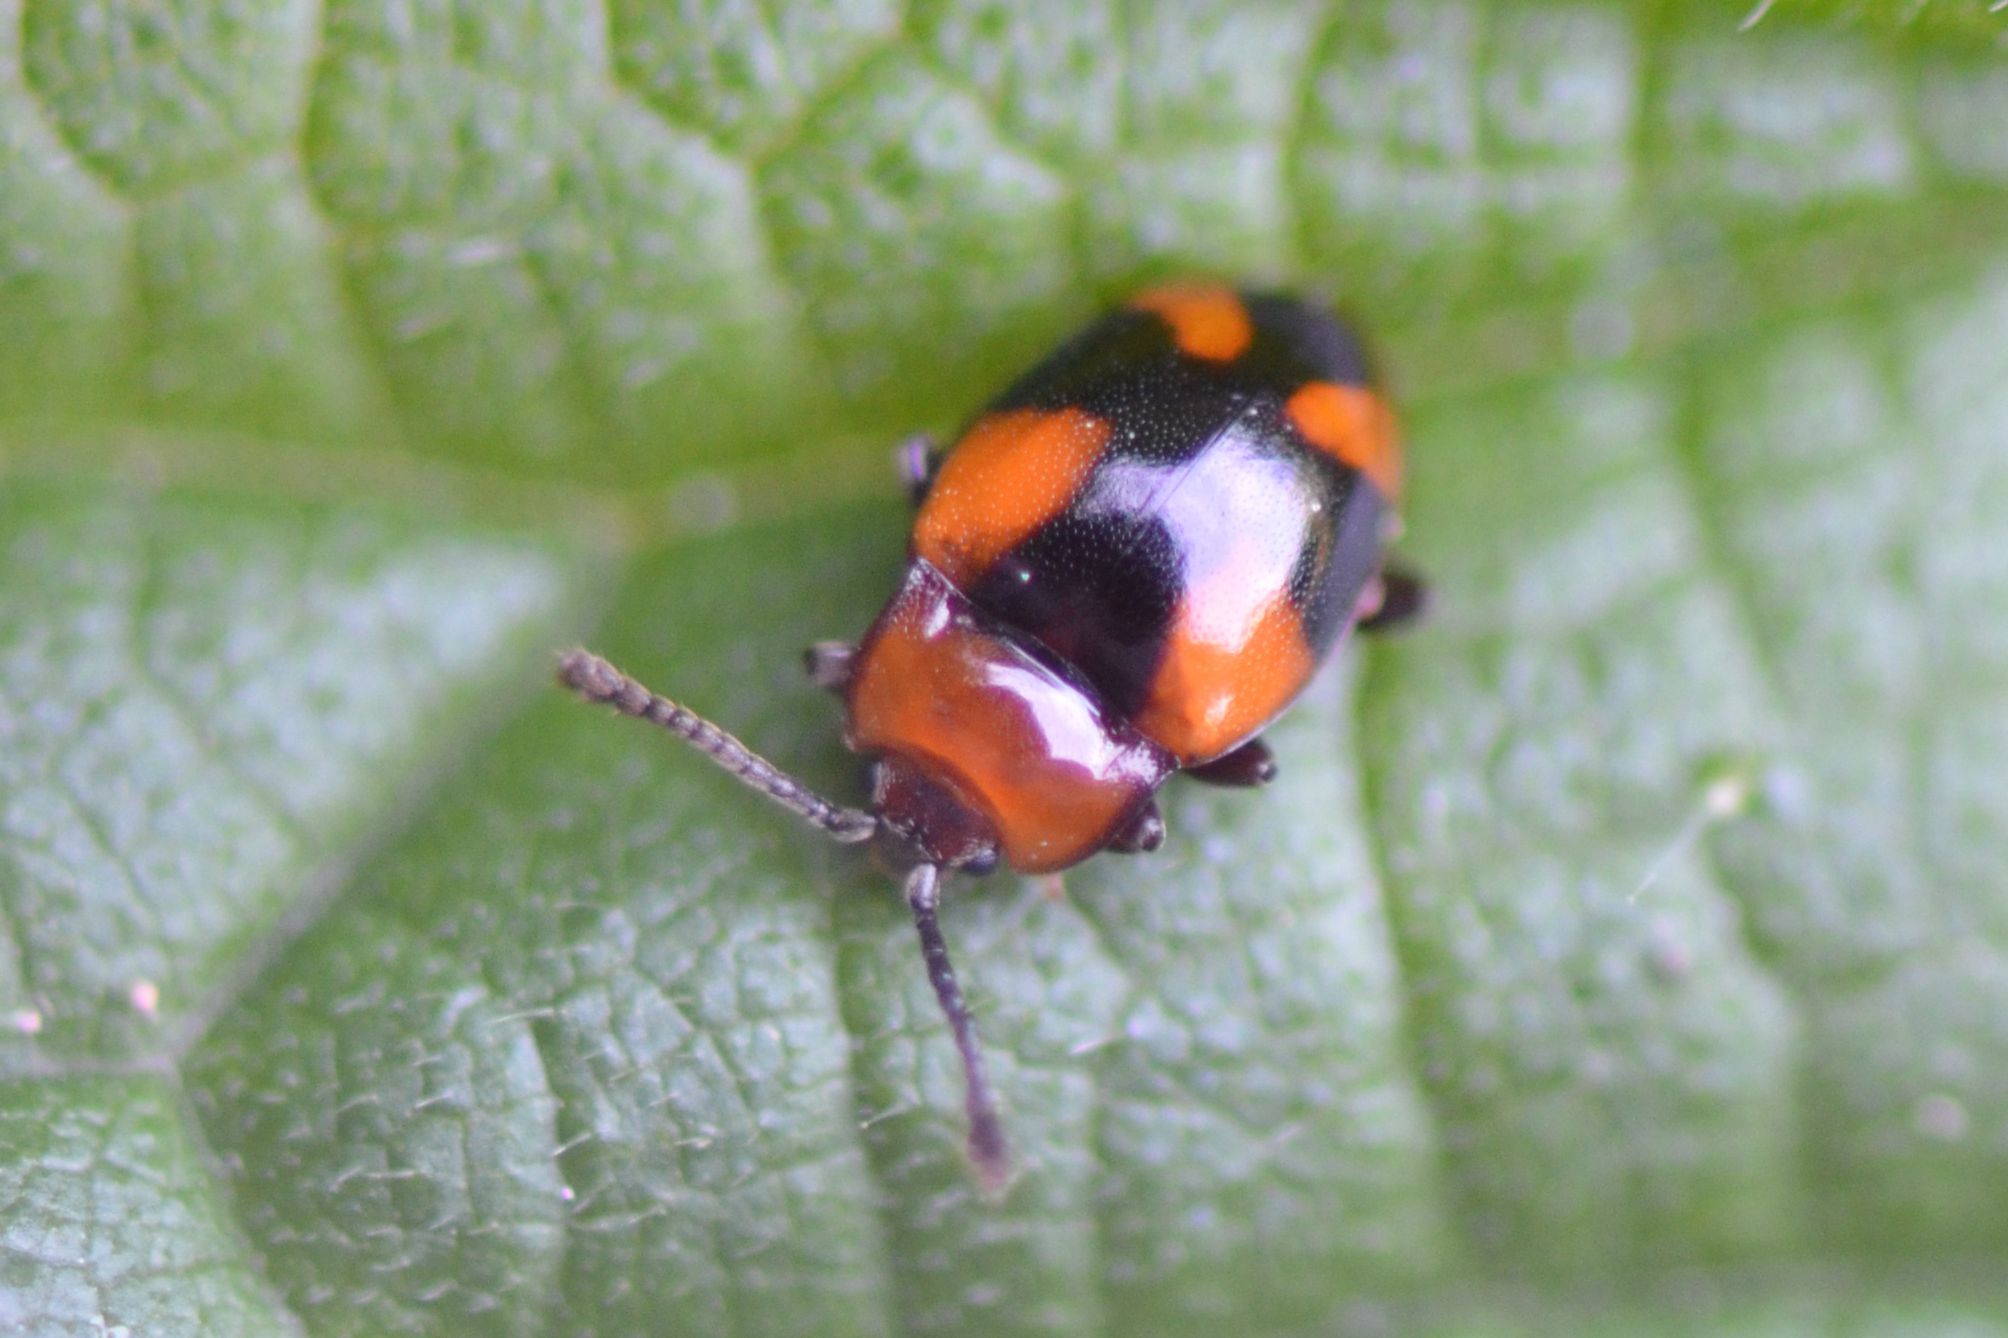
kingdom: Animalia
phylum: Arthropoda
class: Insecta
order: Coleoptera
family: Endomychidae
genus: Mycetina
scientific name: Mycetina cruciata
